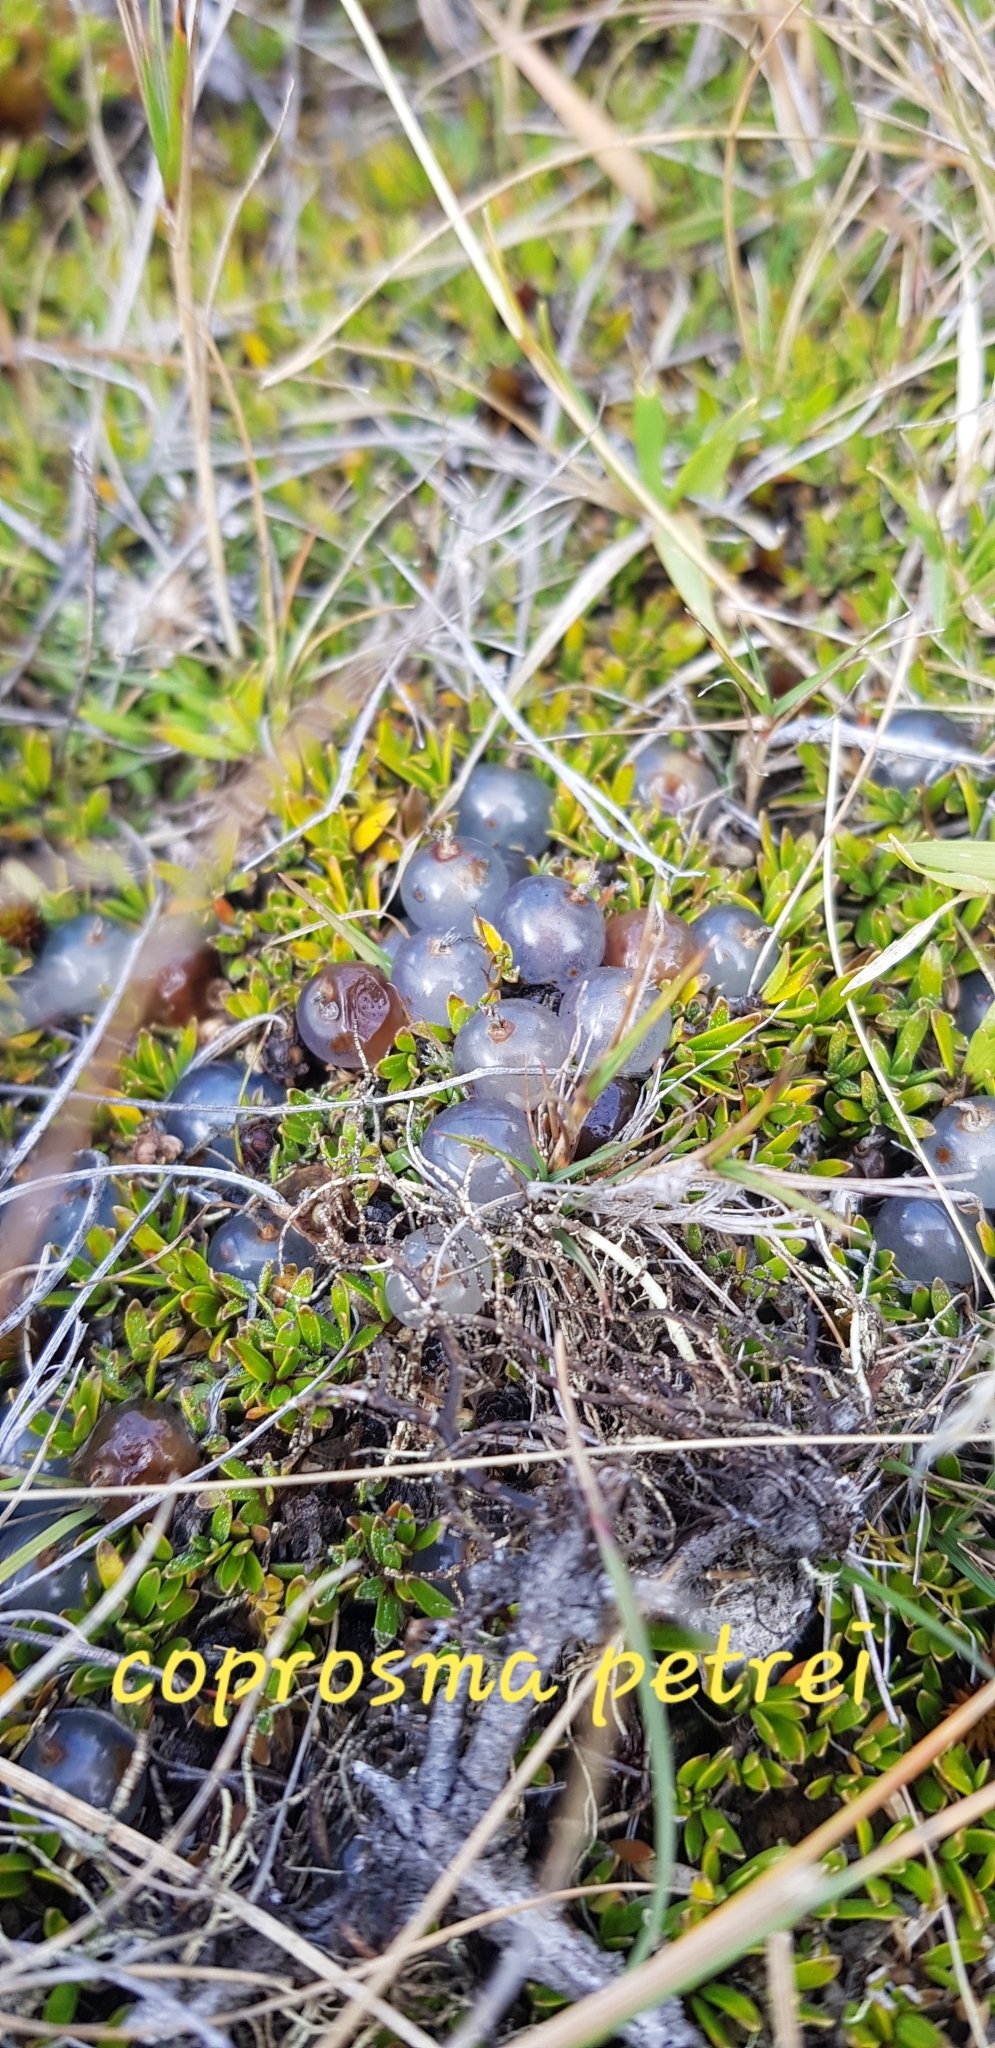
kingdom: Plantae
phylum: Tracheophyta
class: Magnoliopsida
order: Gentianales
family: Rubiaceae
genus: Coprosma
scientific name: Coprosma petriei
